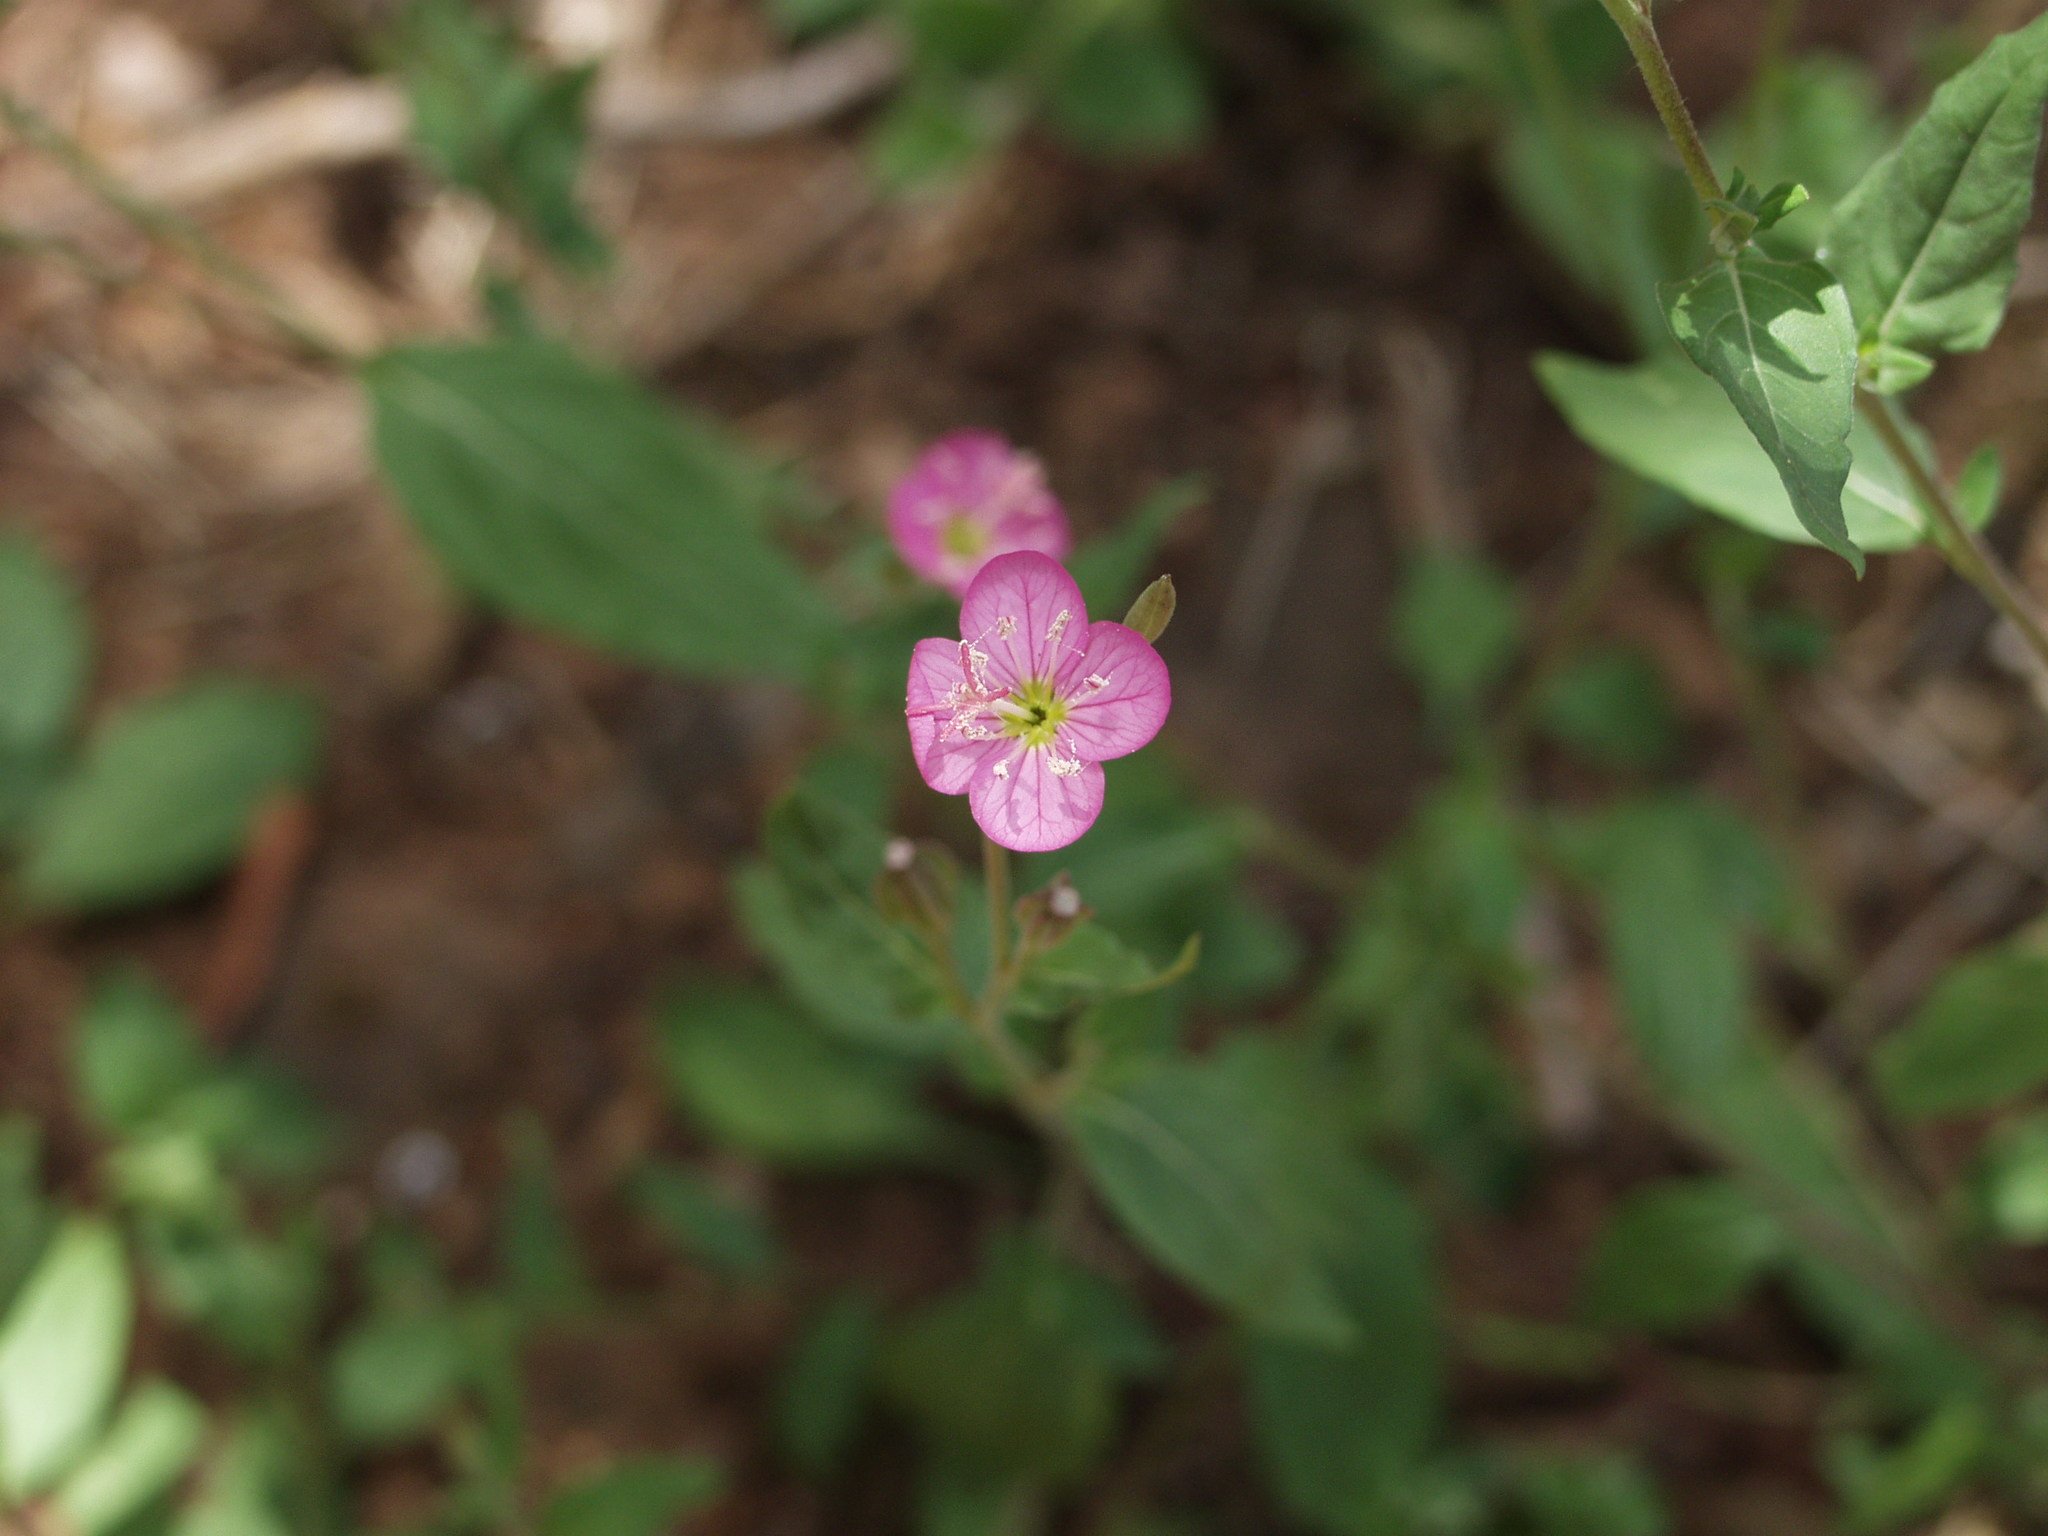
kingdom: Plantae
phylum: Tracheophyta
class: Magnoliopsida
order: Myrtales
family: Onagraceae
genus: Oenothera
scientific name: Oenothera rosea
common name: Rosy evening-primrose
